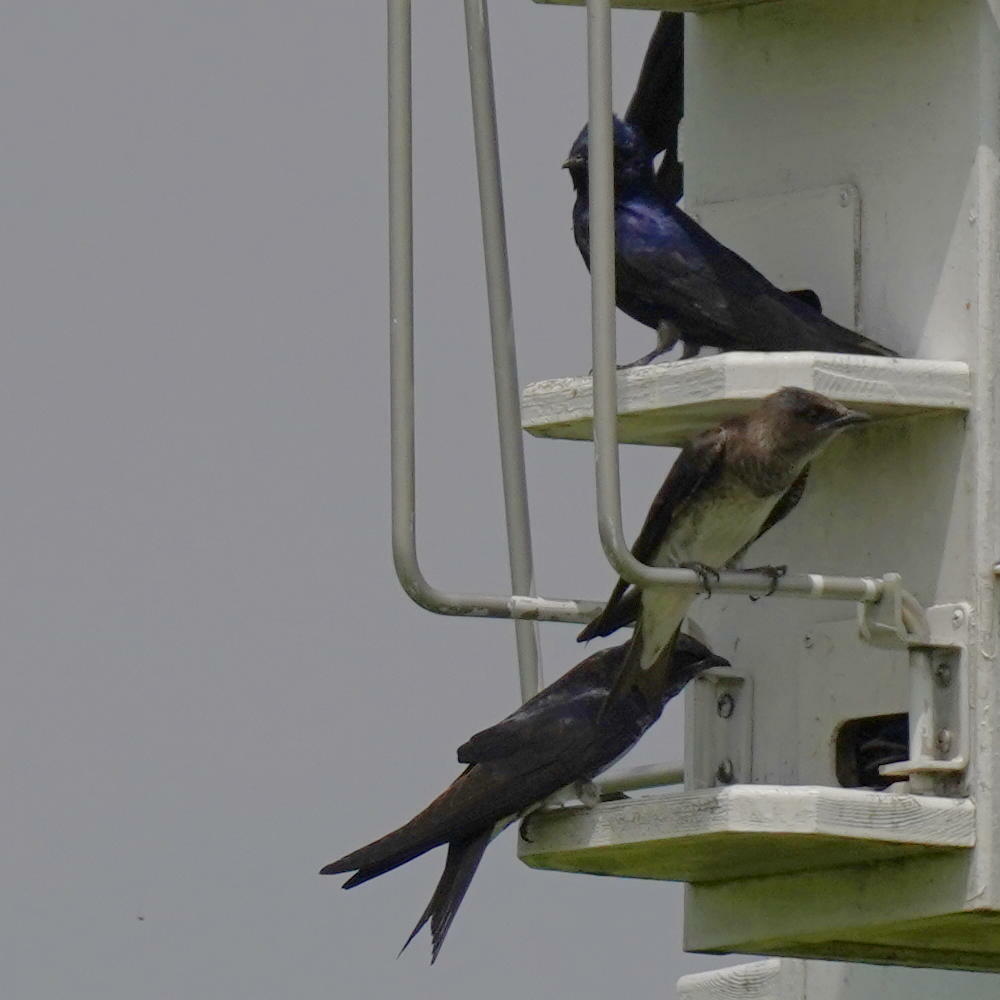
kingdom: Animalia
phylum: Chordata
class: Aves
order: Passeriformes
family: Hirundinidae
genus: Progne
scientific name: Progne subis
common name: Purple martin
